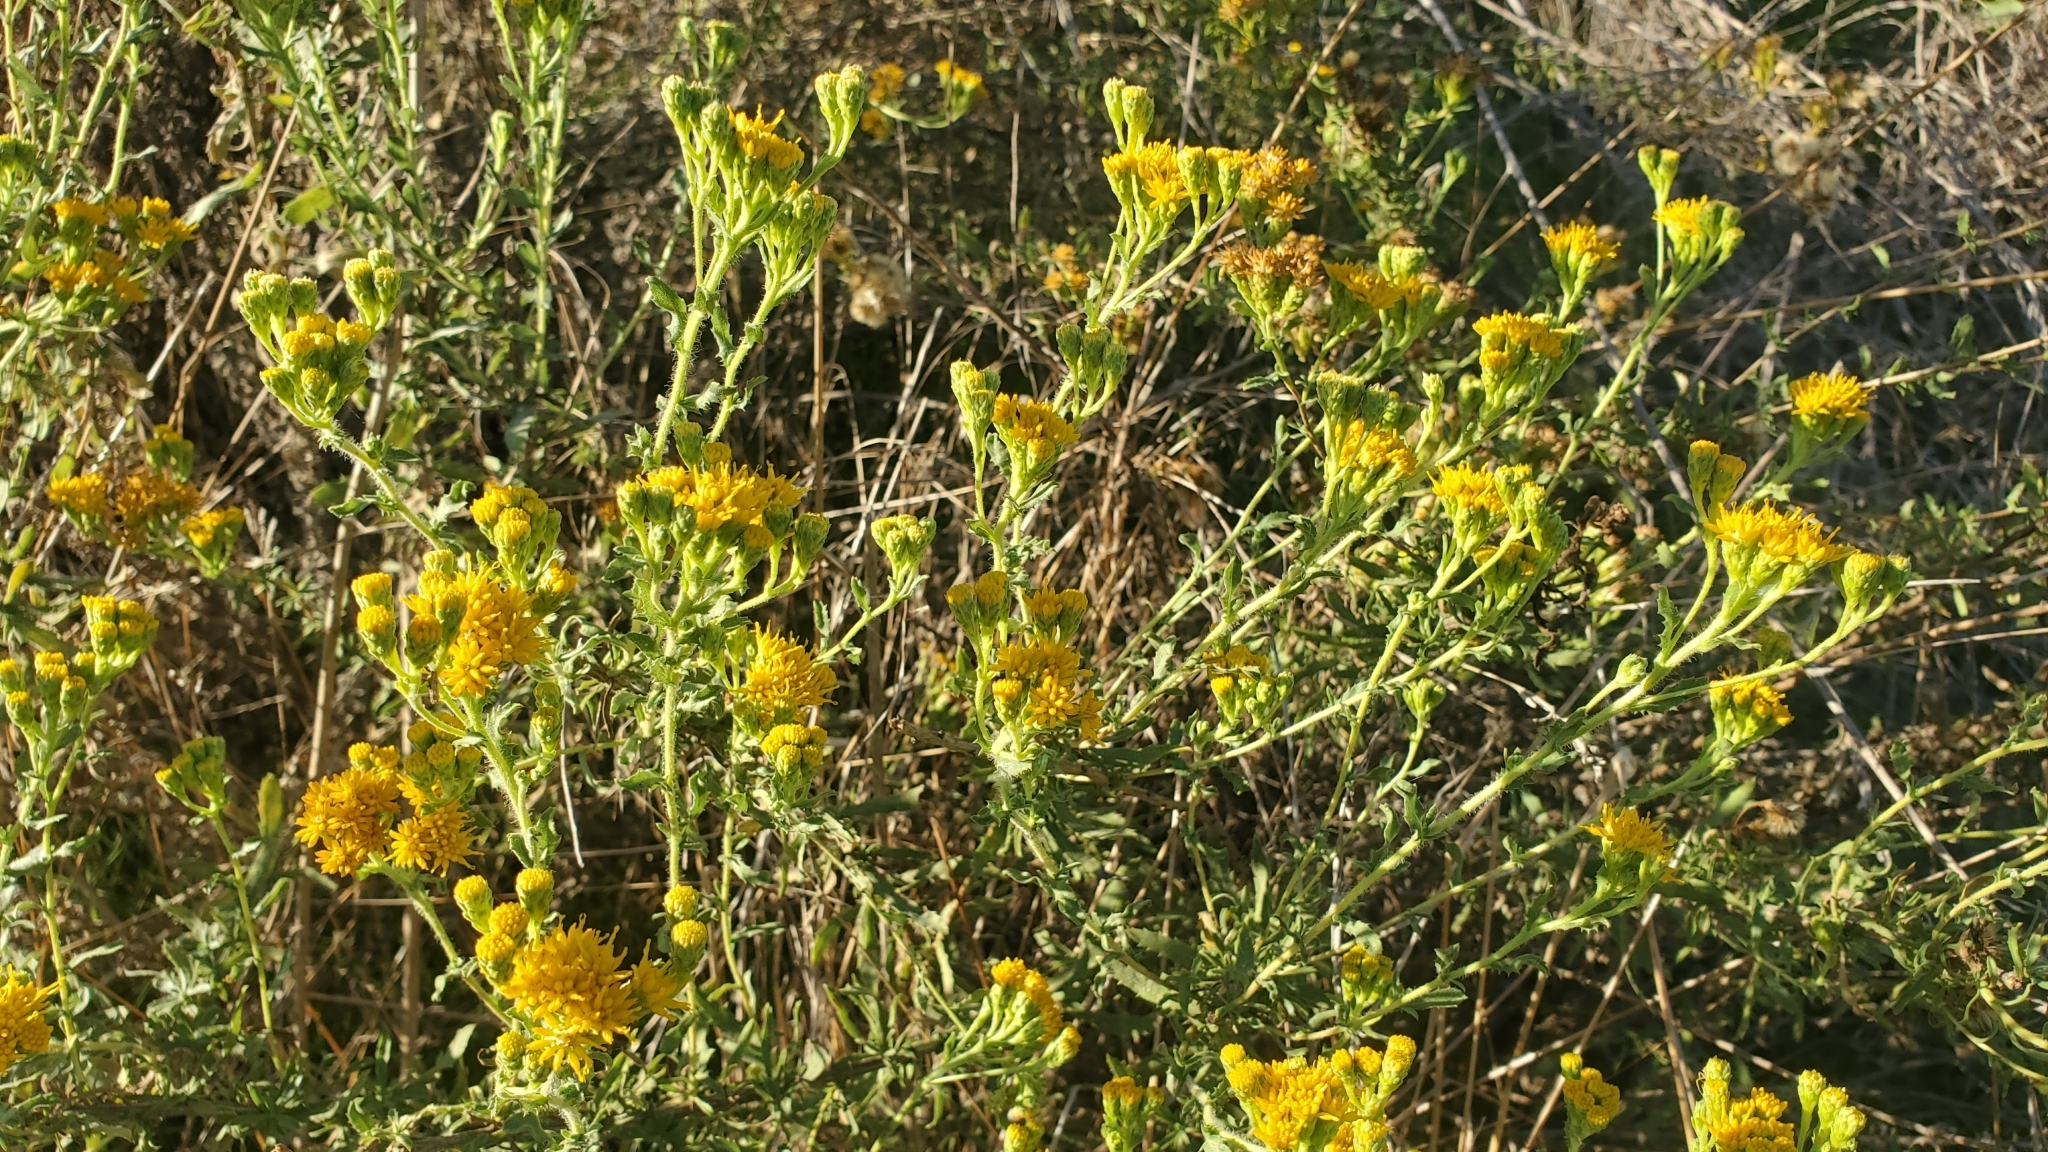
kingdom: Plantae
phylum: Tracheophyta
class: Magnoliopsida
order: Asterales
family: Asteraceae
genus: Isocoma
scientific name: Isocoma menziesii
